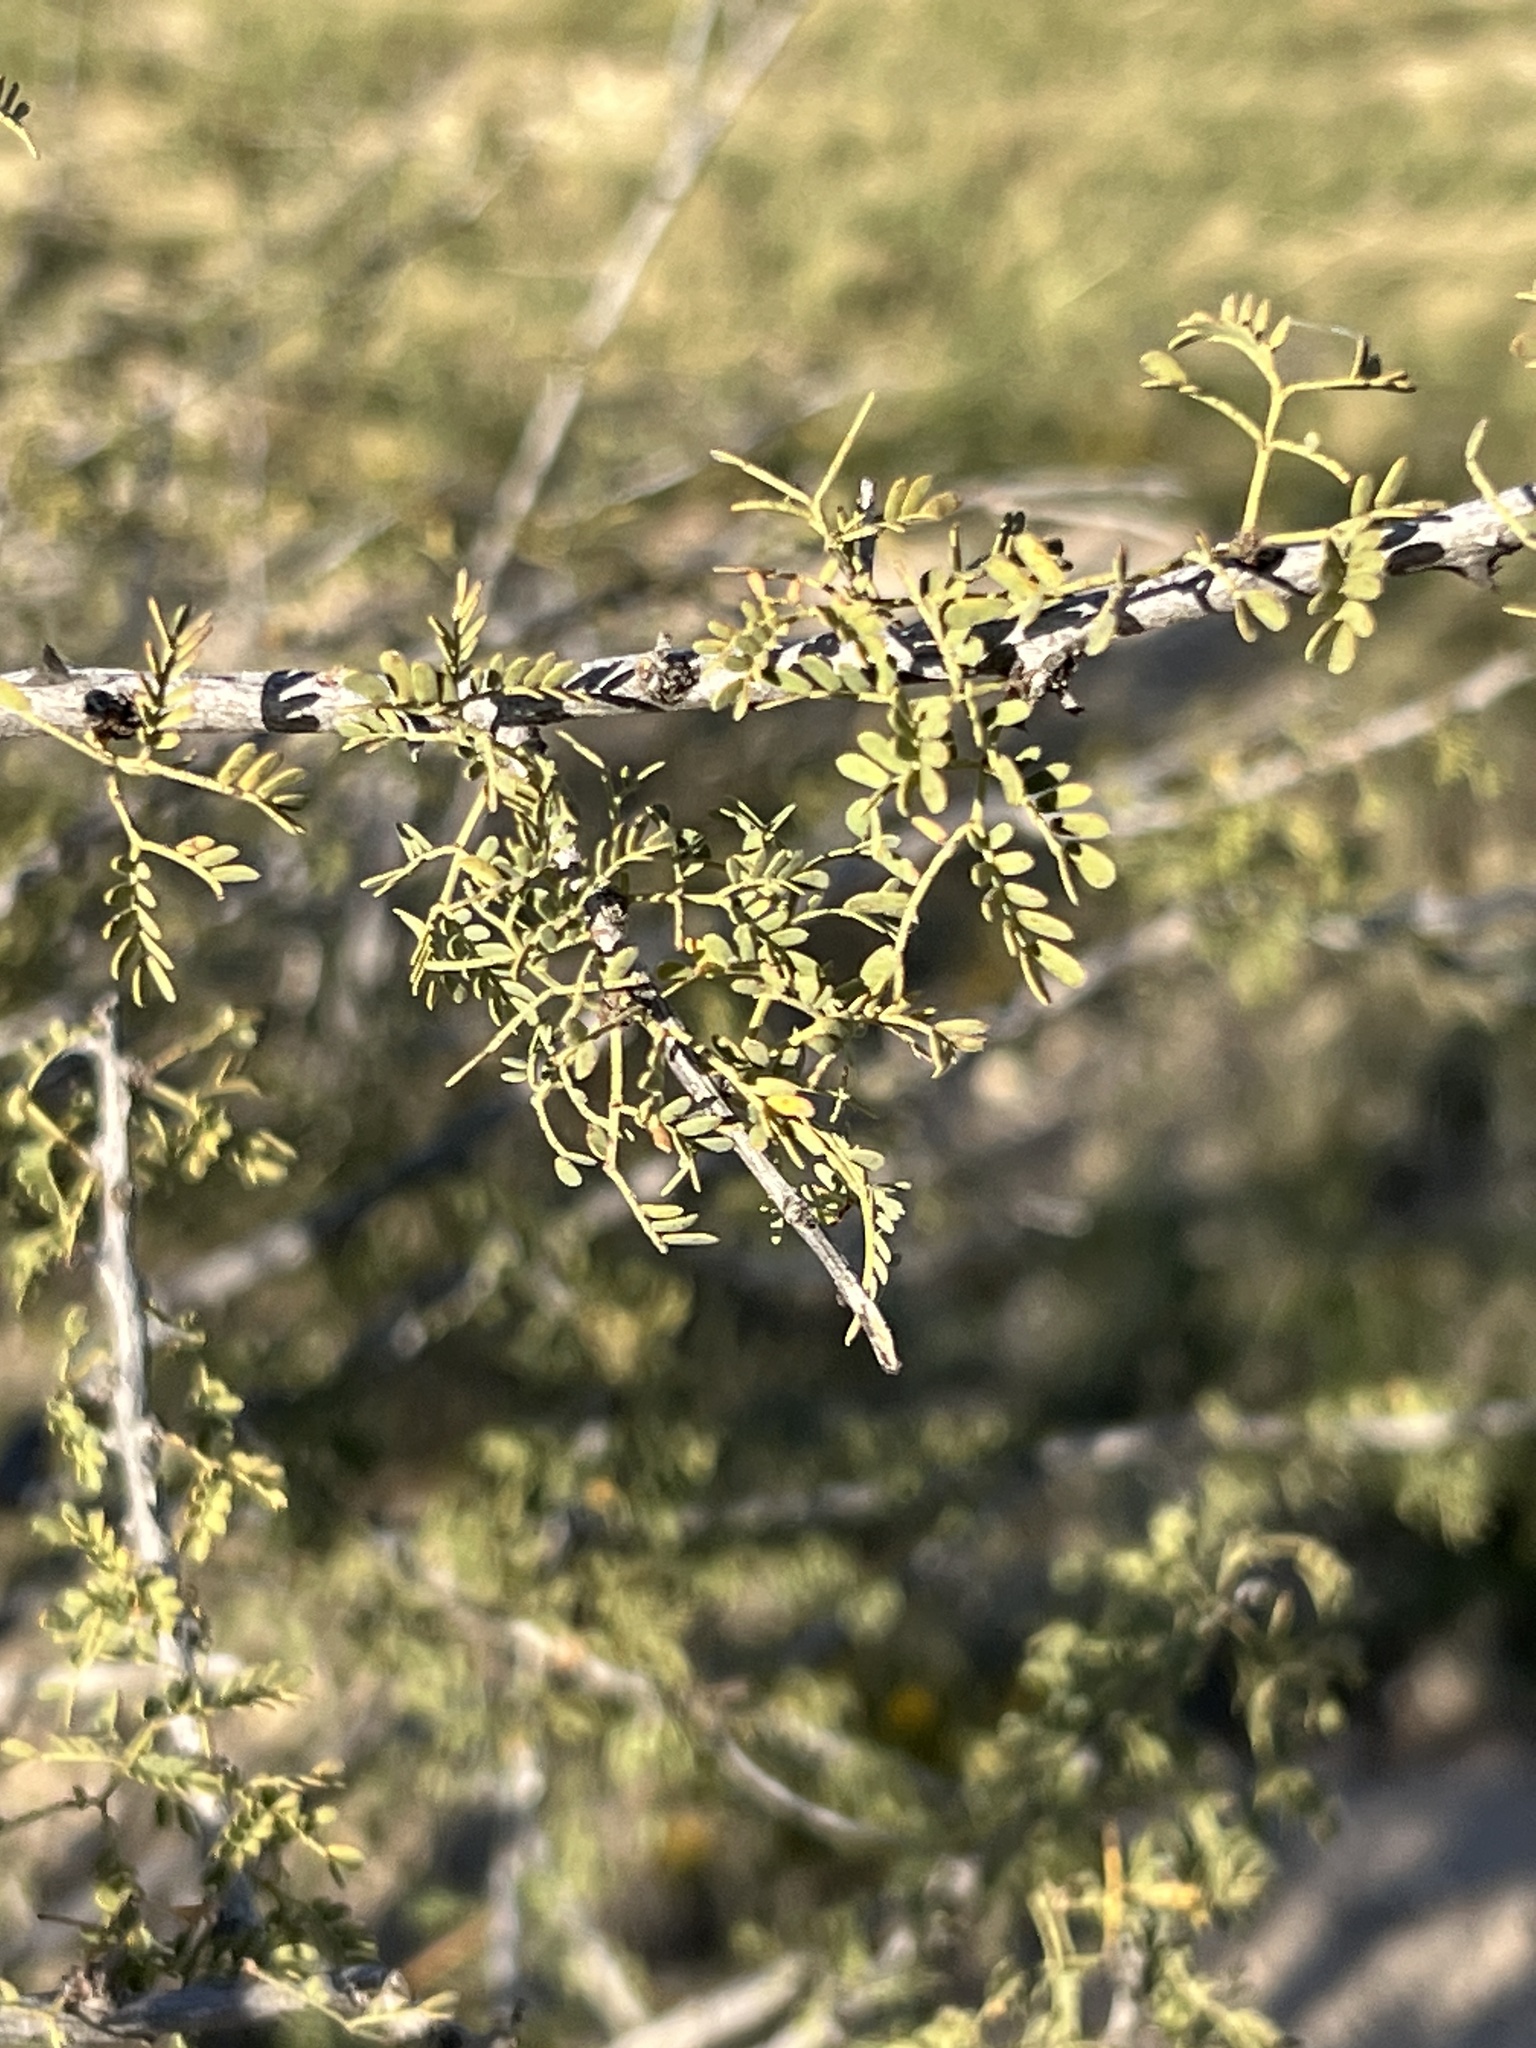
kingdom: Plantae
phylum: Tracheophyta
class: Magnoliopsida
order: Fabales
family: Fabaceae
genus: Senegalia
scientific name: Senegalia greggii
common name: Texas-mimosa
